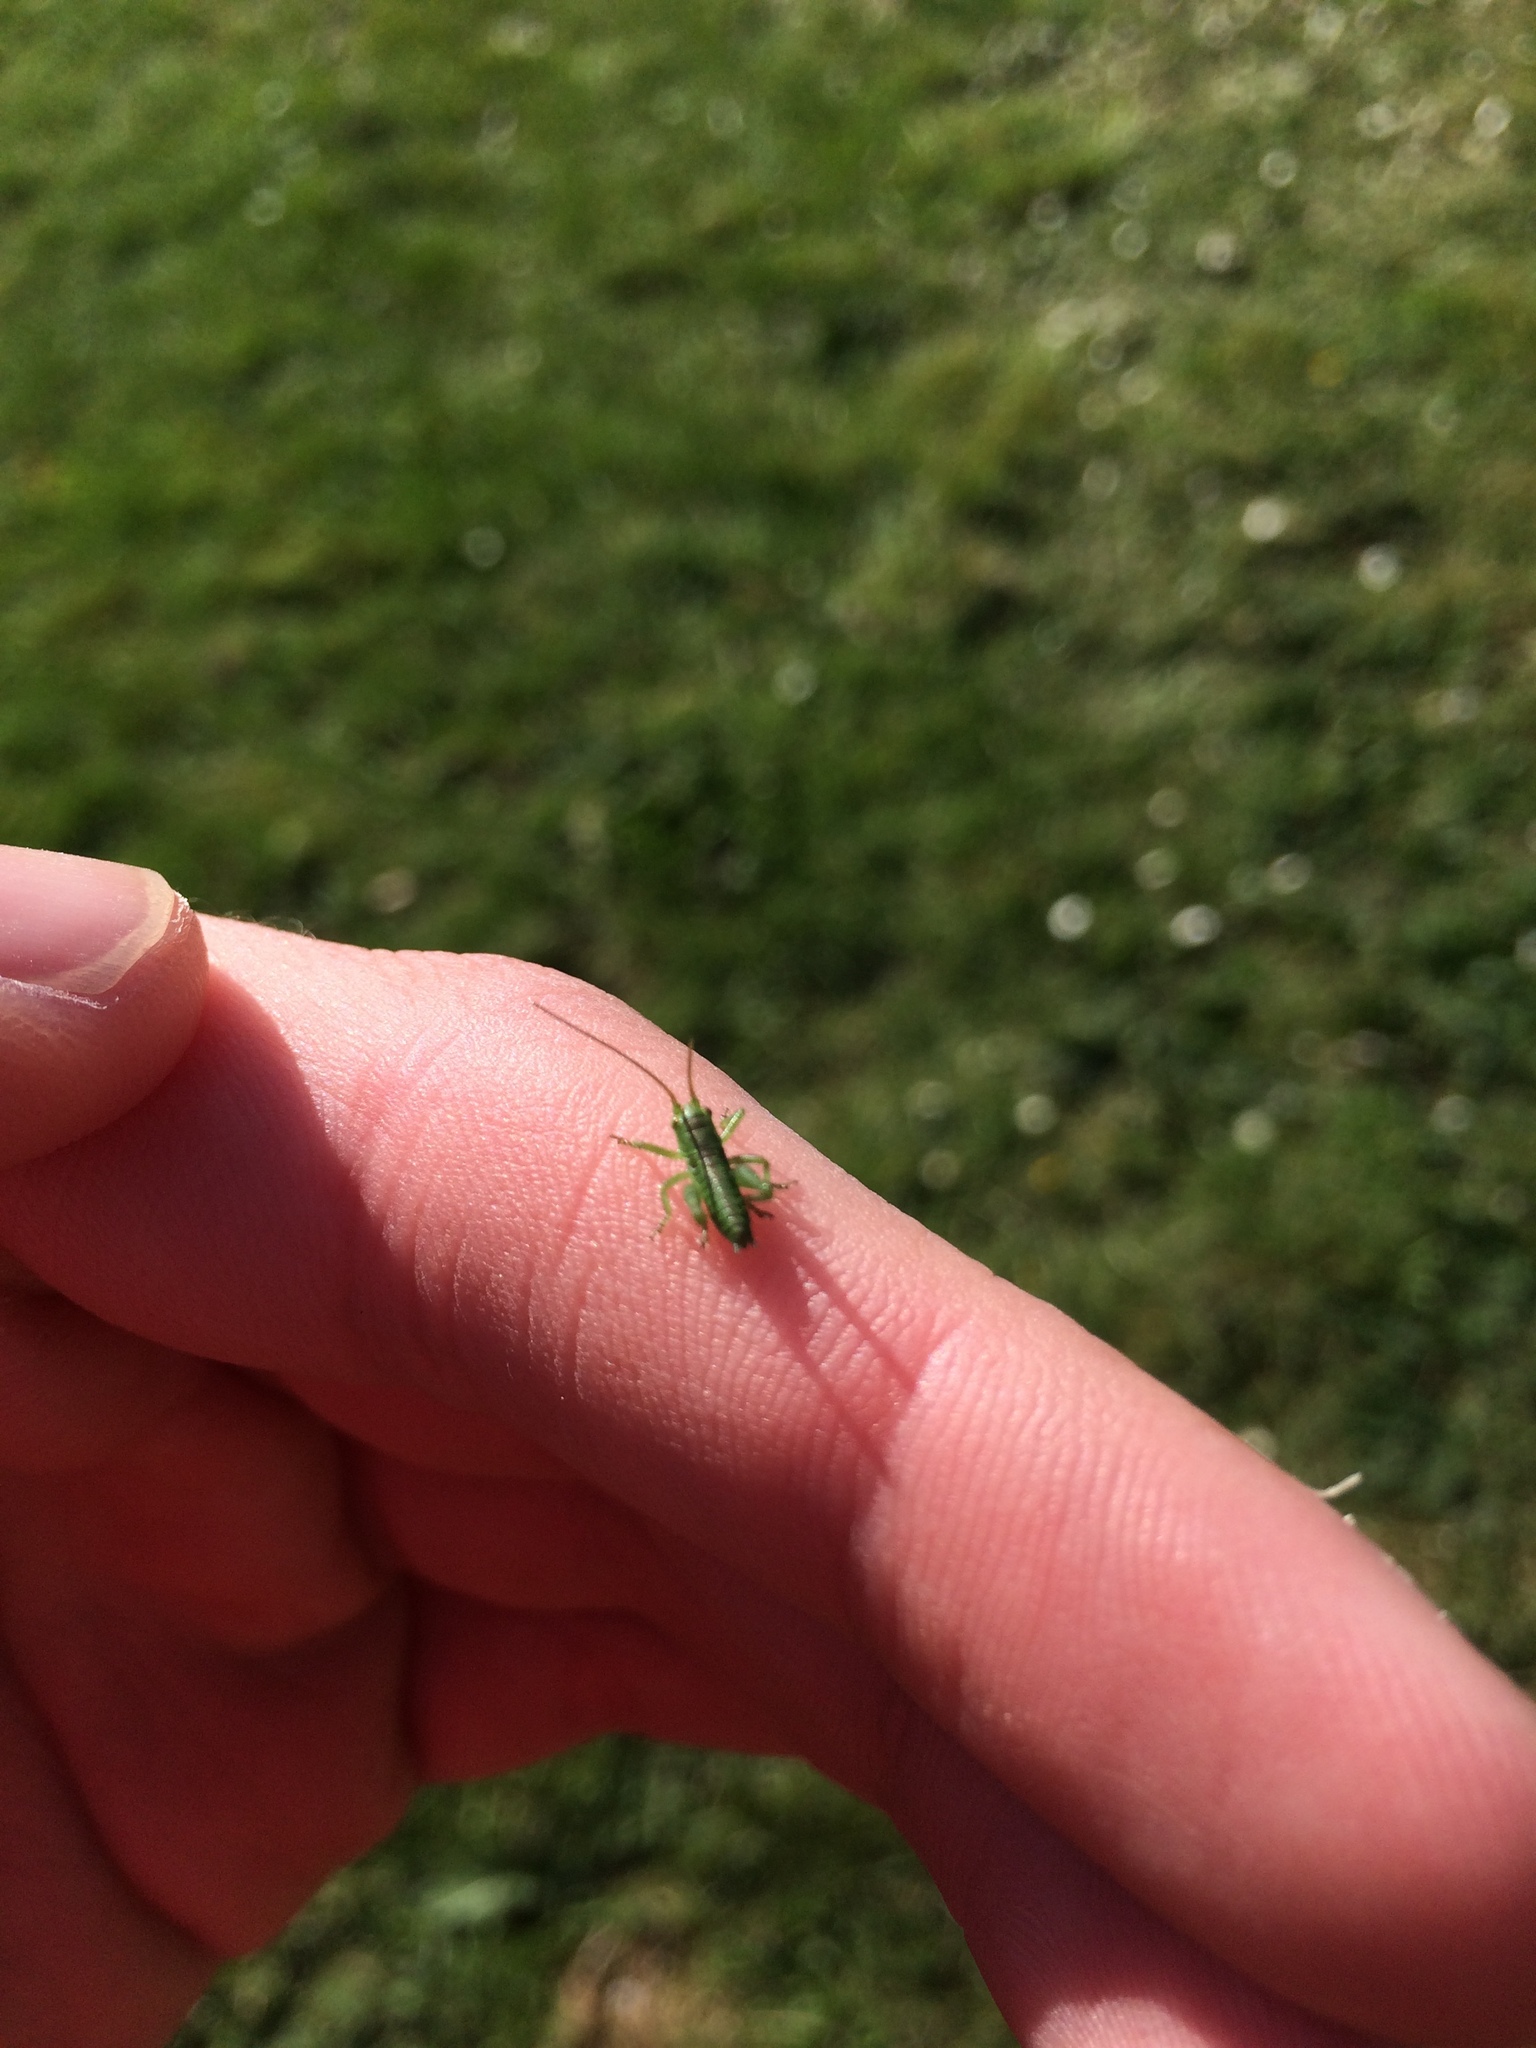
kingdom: Animalia
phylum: Arthropoda
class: Insecta
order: Orthoptera
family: Tettigoniidae
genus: Tettigonia
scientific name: Tettigonia viridissima
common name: Great green bush-cricket
